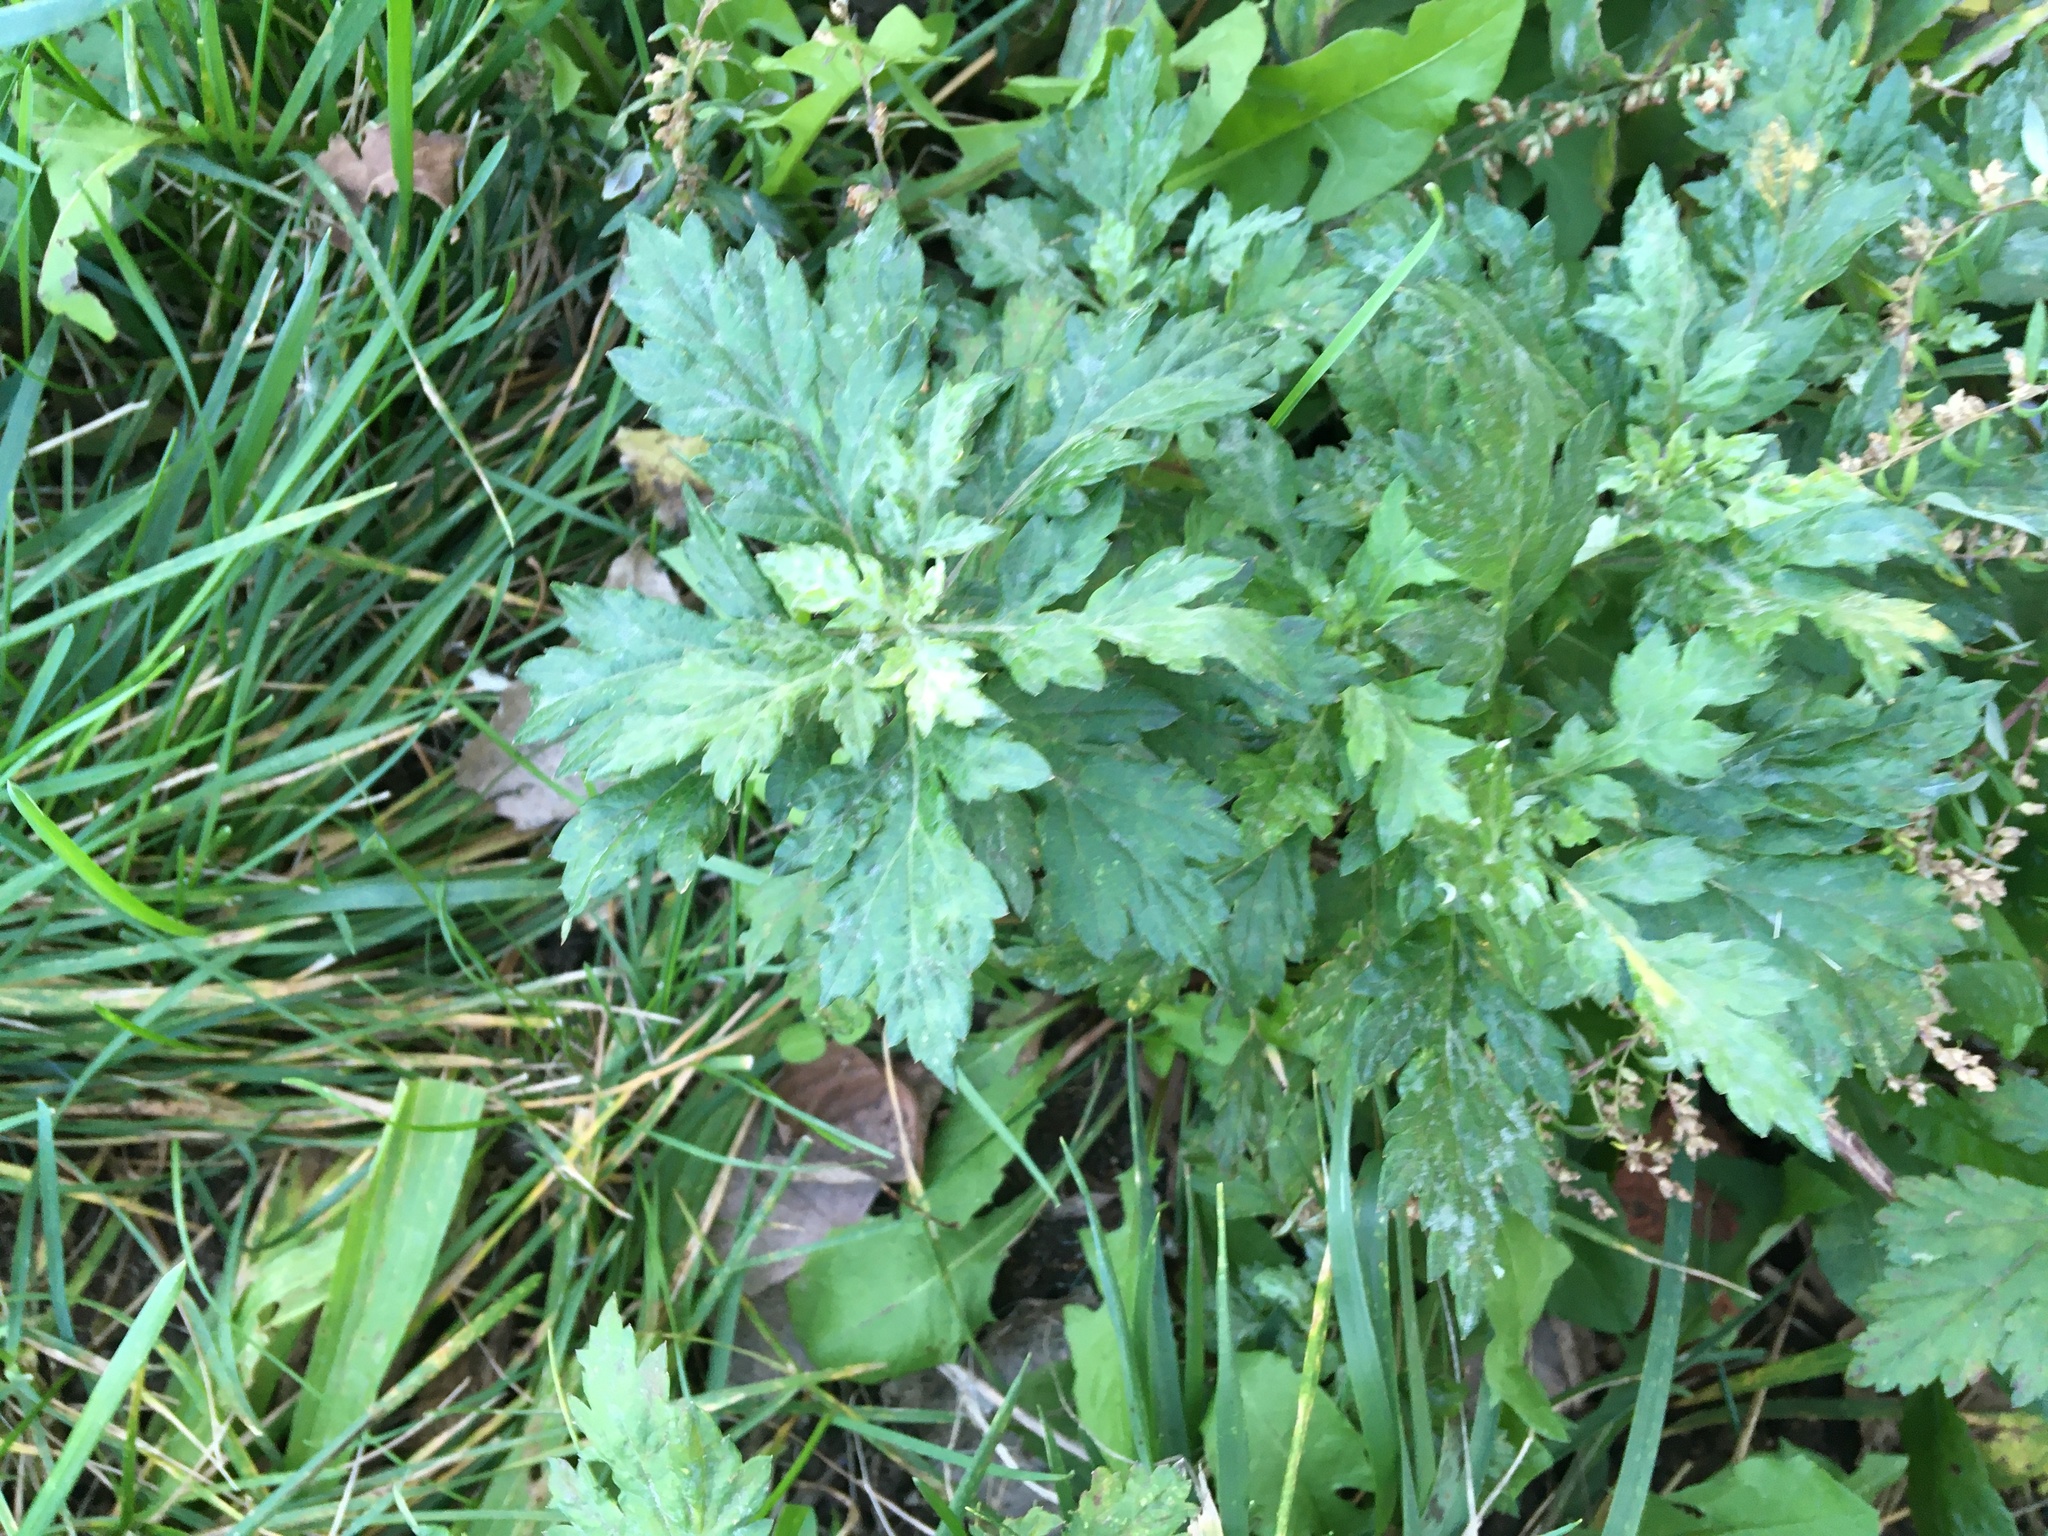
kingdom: Plantae
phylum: Tracheophyta
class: Magnoliopsida
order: Asterales
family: Asteraceae
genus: Artemisia
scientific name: Artemisia vulgaris
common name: Mugwort
